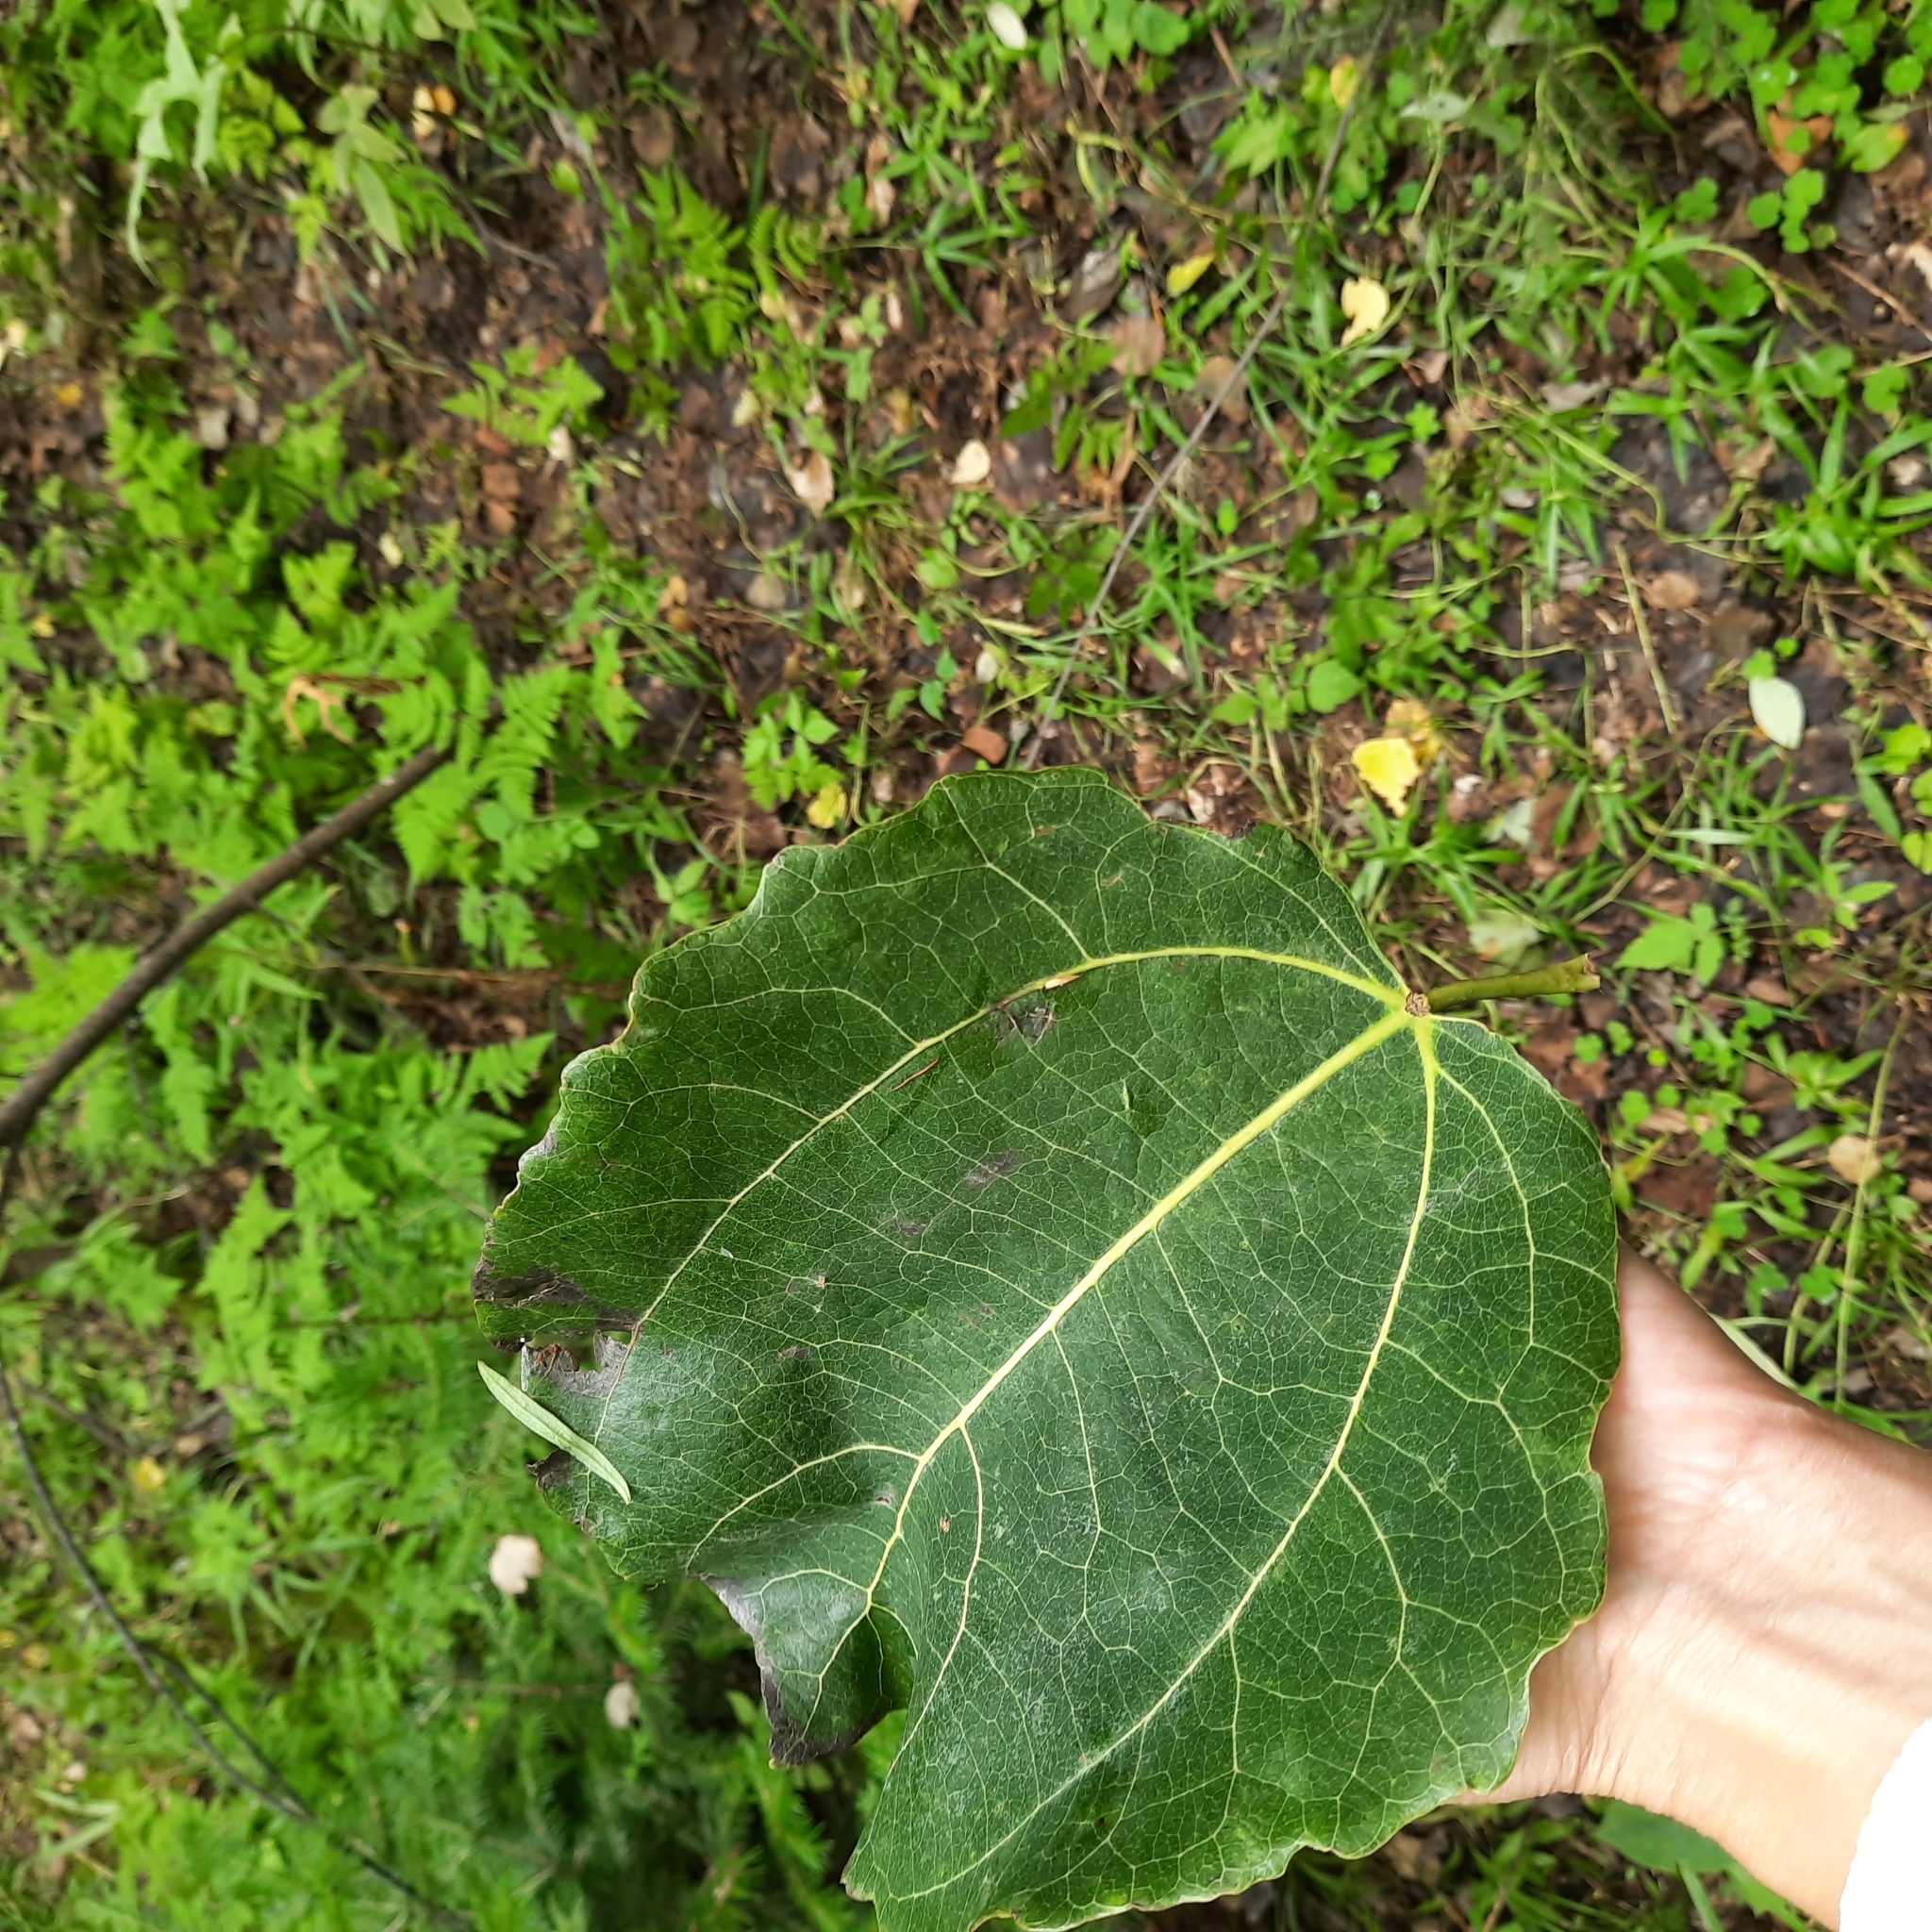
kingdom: Plantae
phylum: Tracheophyta
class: Magnoliopsida
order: Malpighiales
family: Salicaceae
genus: Populus
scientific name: Populus tremula
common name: European aspen
